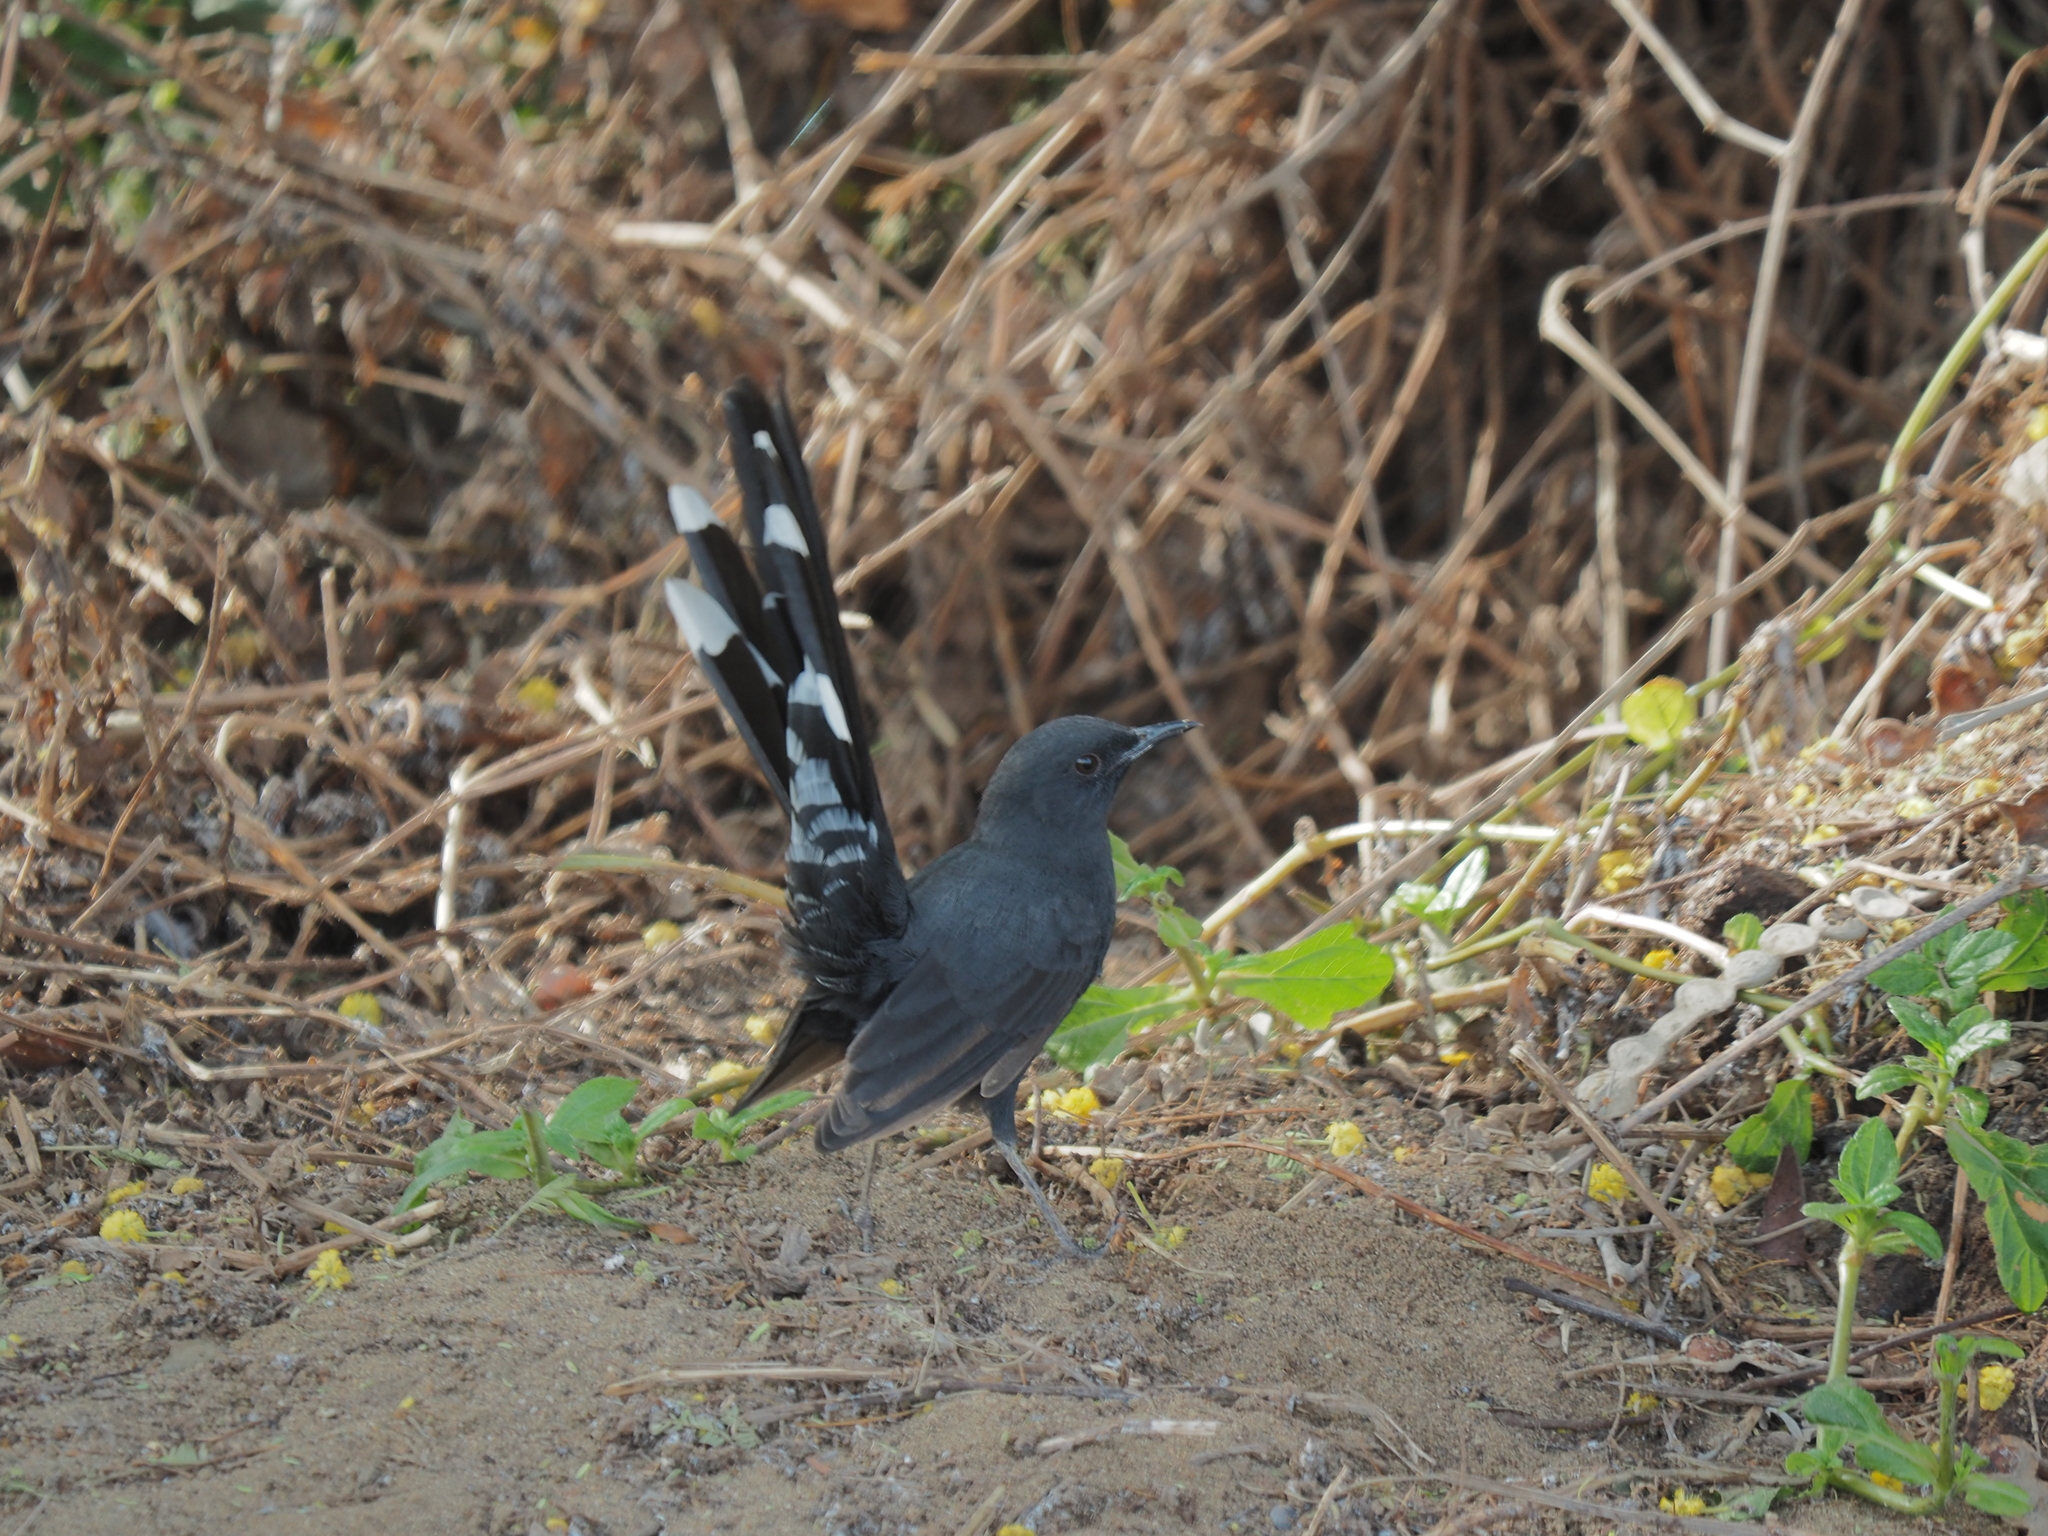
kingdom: Animalia
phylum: Chordata
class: Aves
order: Passeriformes
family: Muscicapidae
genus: Cercotrichas
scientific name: Cercotrichas podobe
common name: Black scrub robin
